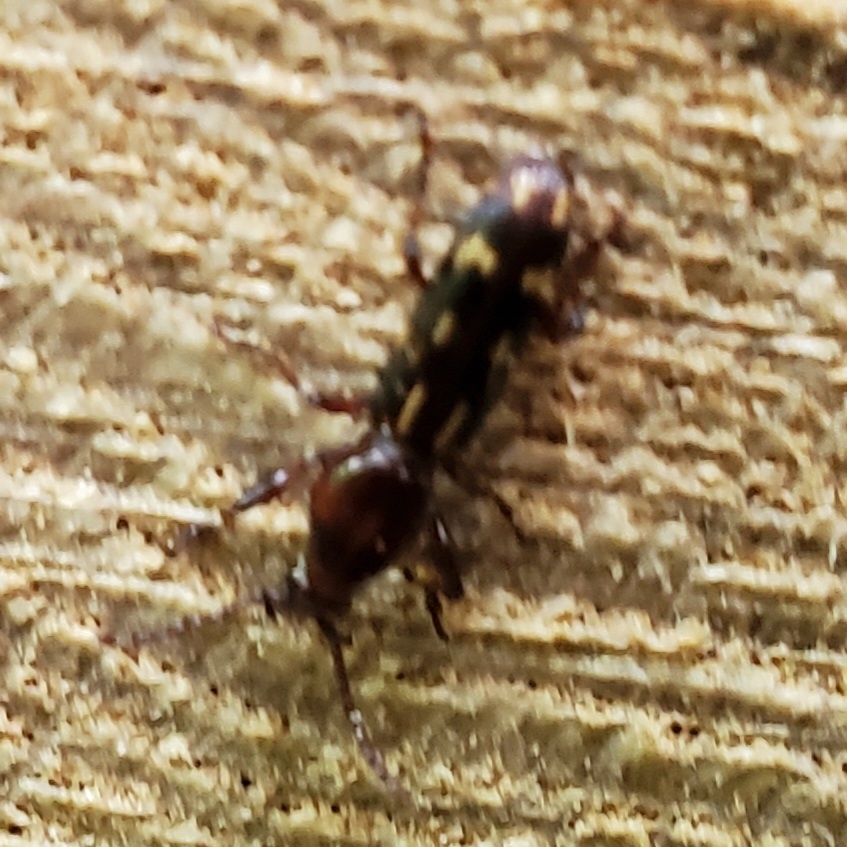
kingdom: Animalia
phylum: Arthropoda
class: Insecta
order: Coleoptera
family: Brentidae
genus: Arrenodes
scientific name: Arrenodes minutus
